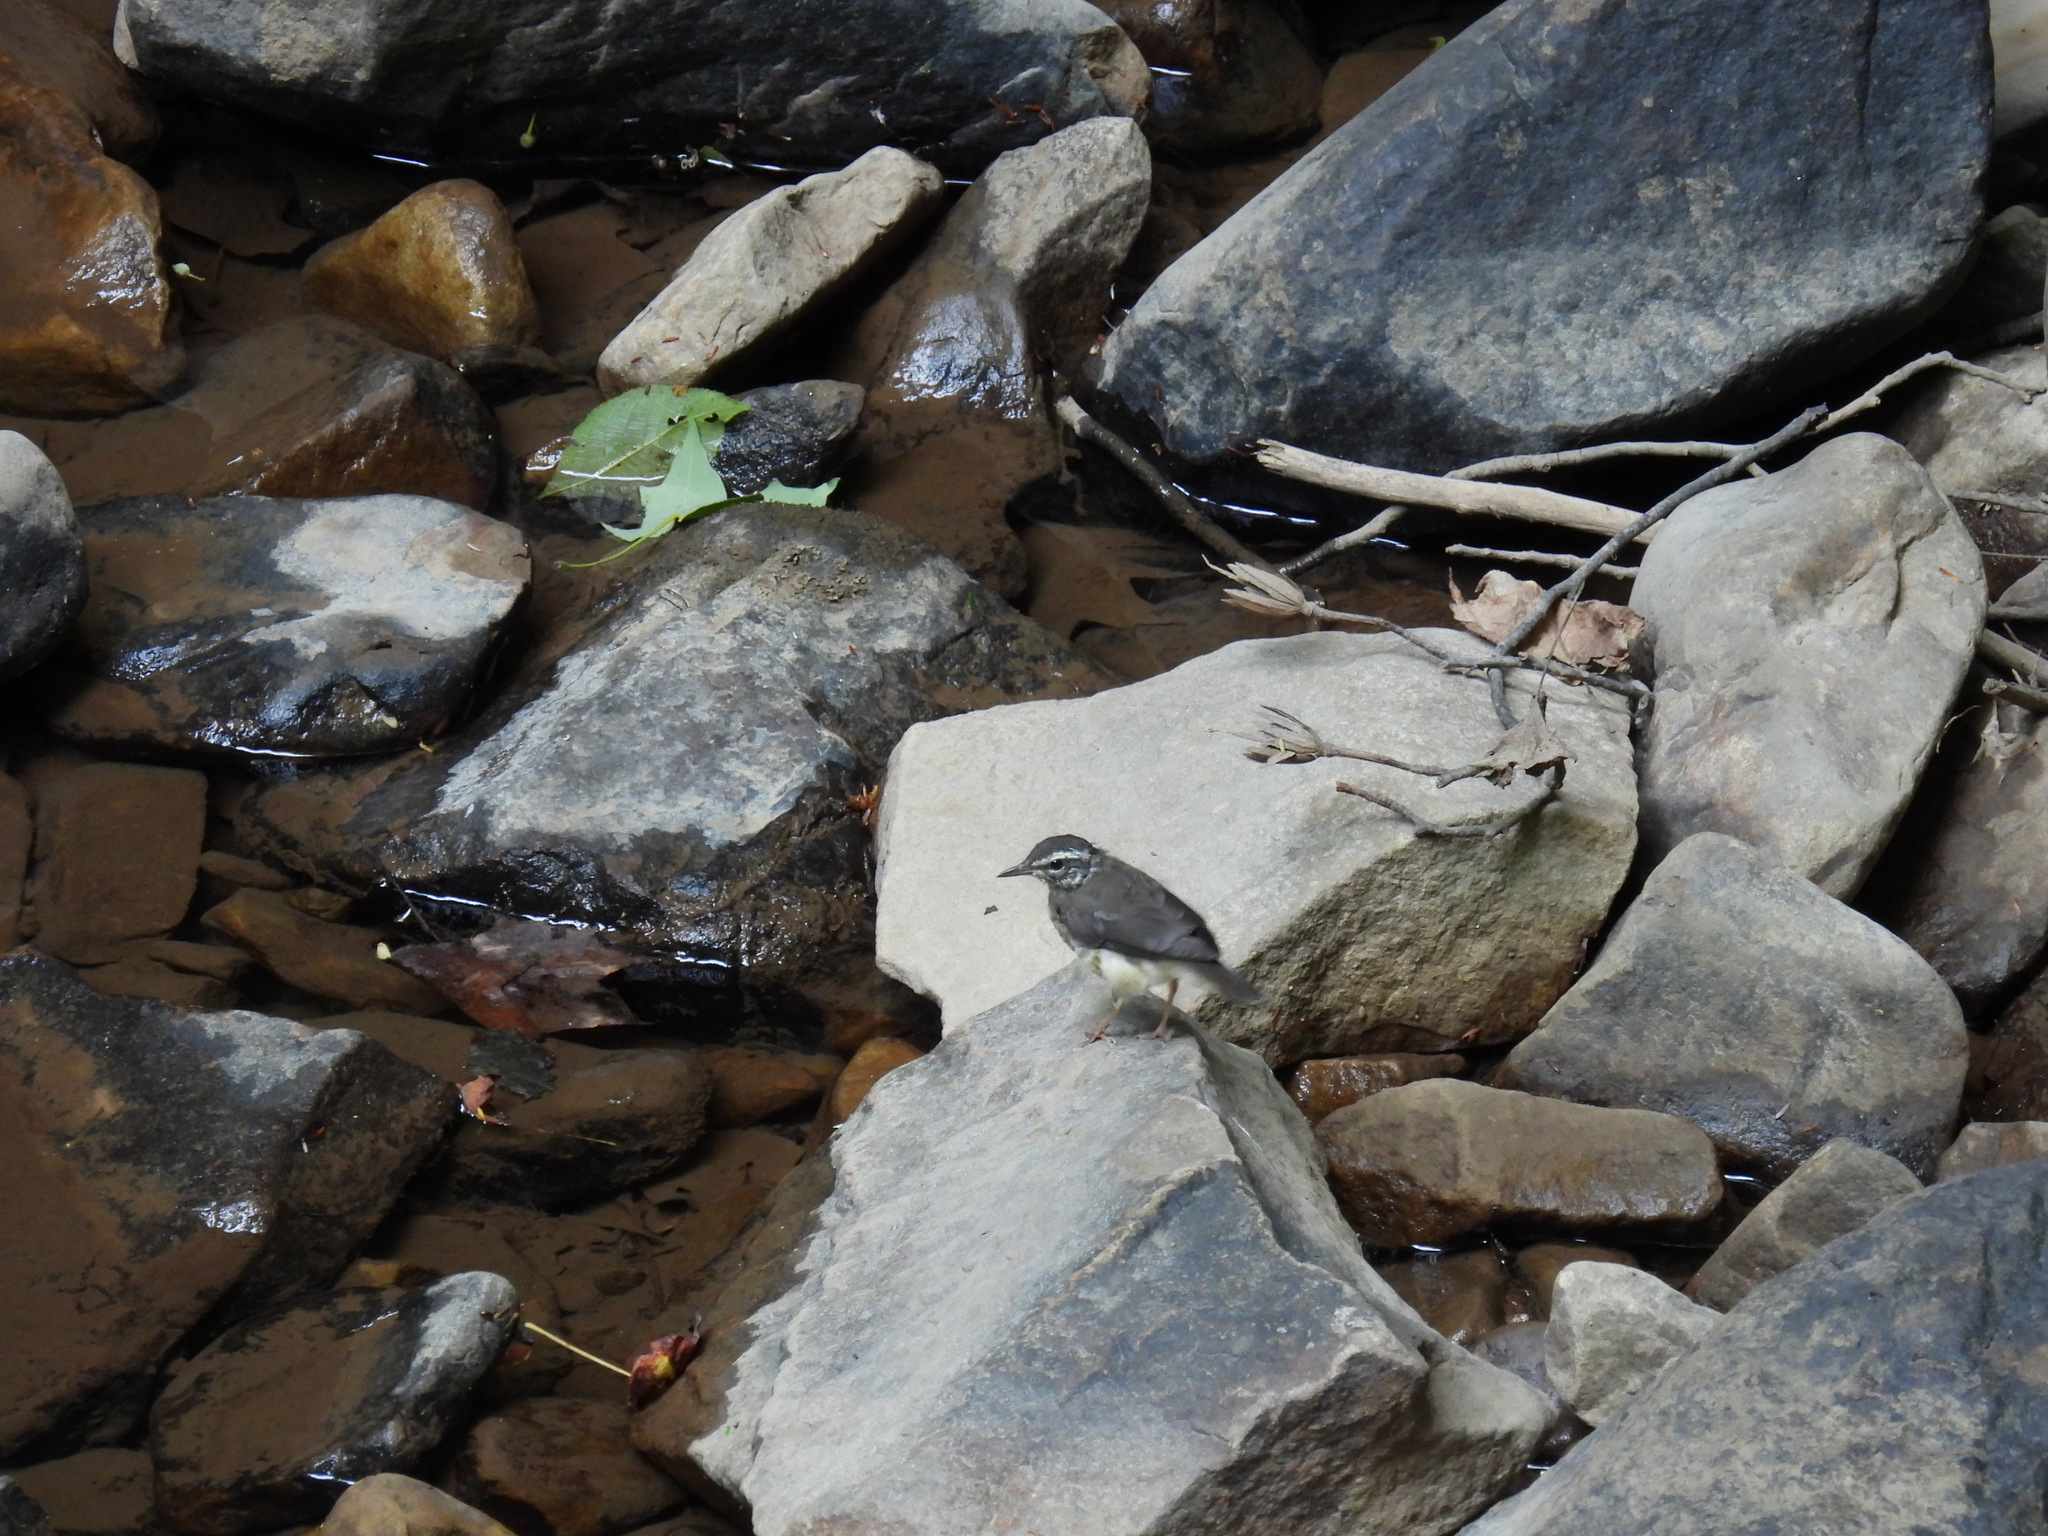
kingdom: Animalia
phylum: Chordata
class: Aves
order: Passeriformes
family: Parulidae
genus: Parkesia
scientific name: Parkesia motacilla
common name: Louisiana waterthrush
